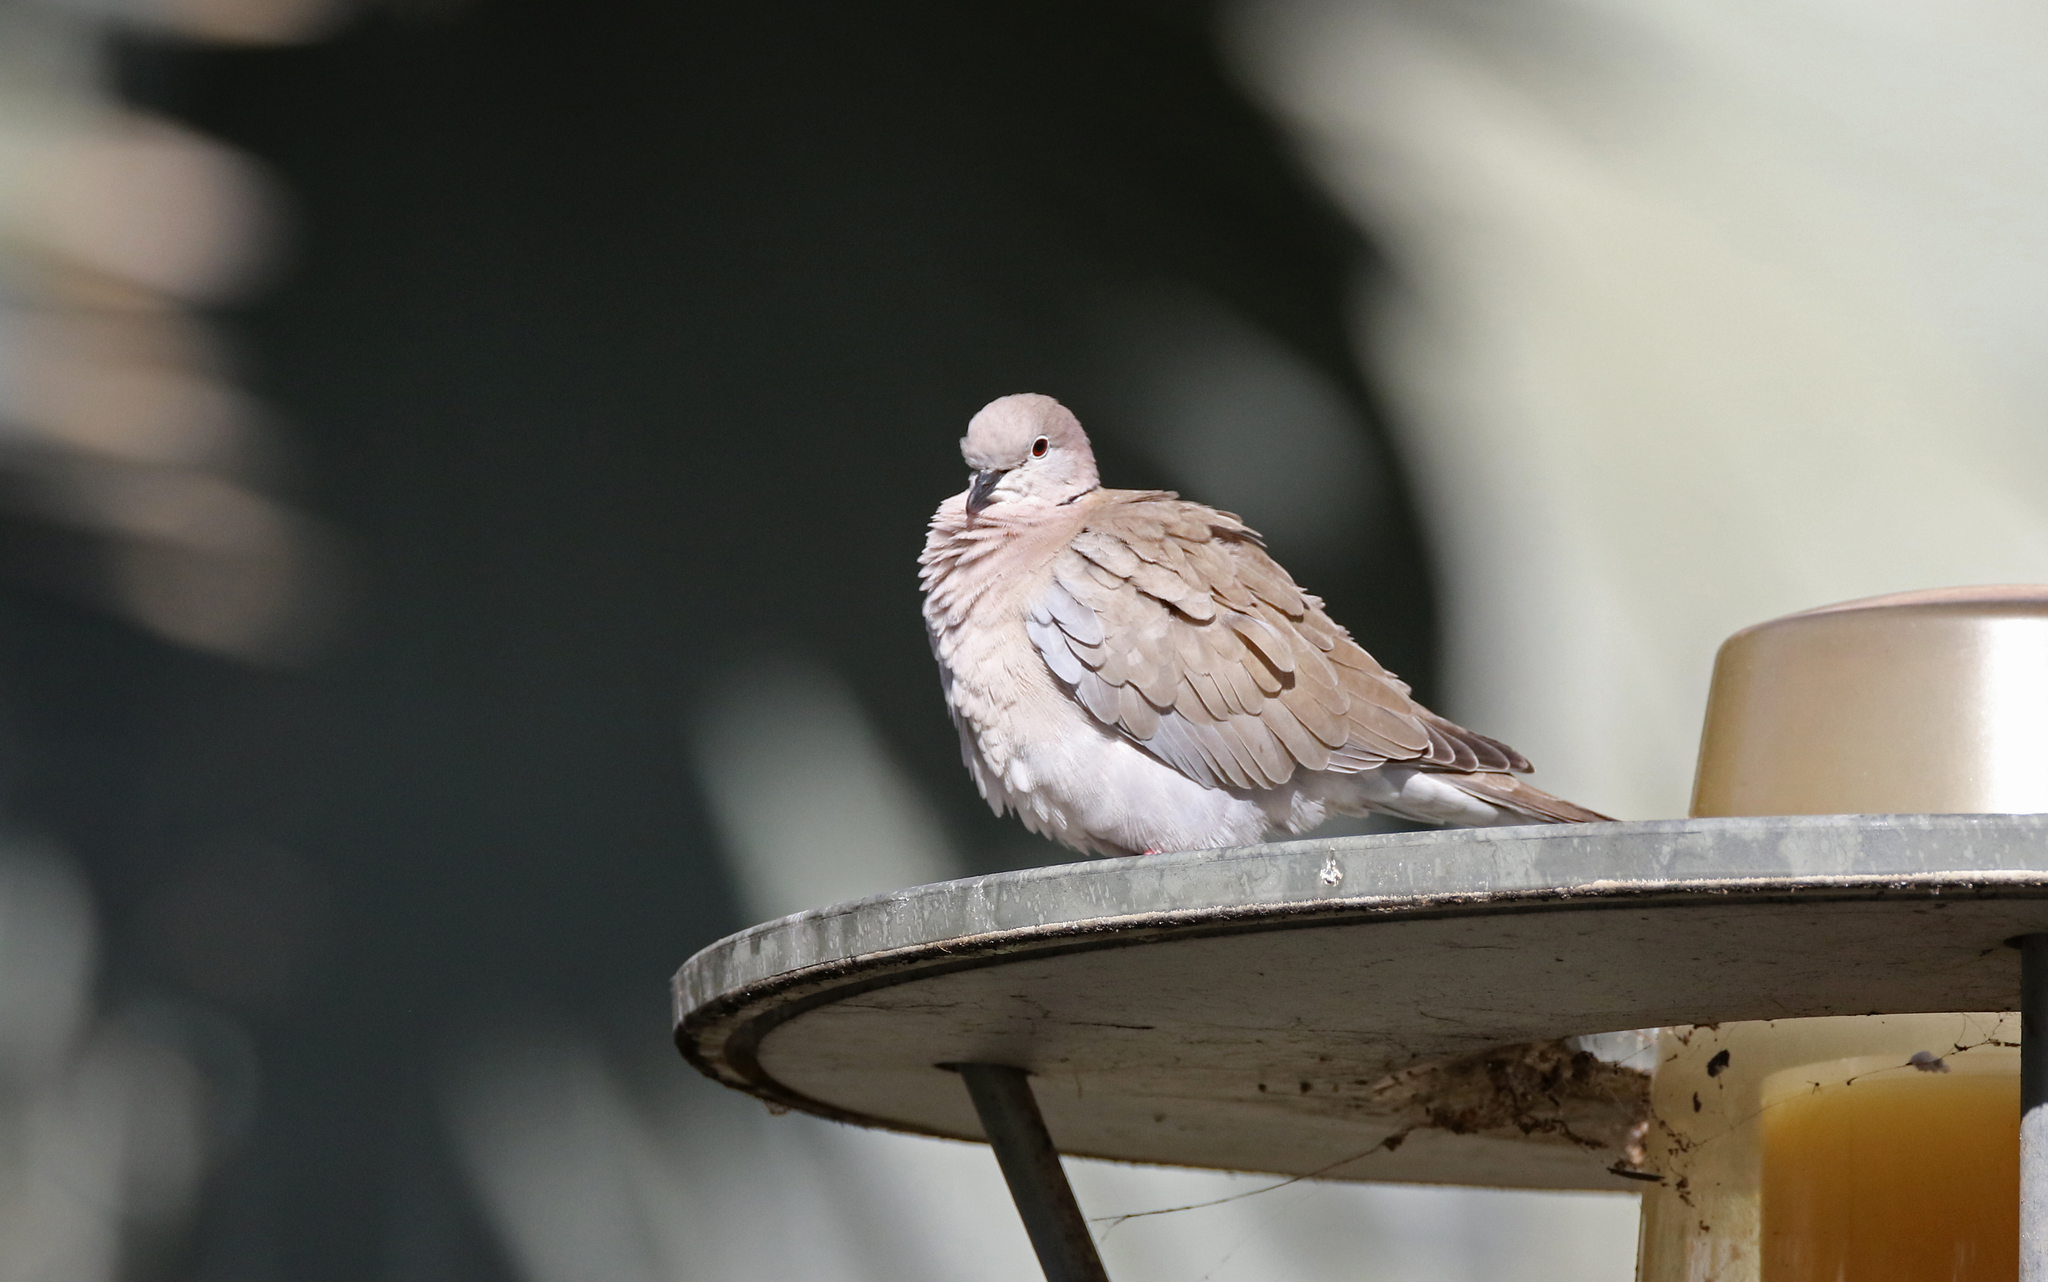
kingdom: Animalia
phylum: Chordata
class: Aves
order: Columbiformes
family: Columbidae
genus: Streptopelia
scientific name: Streptopelia decaocto
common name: Eurasian collared dove
